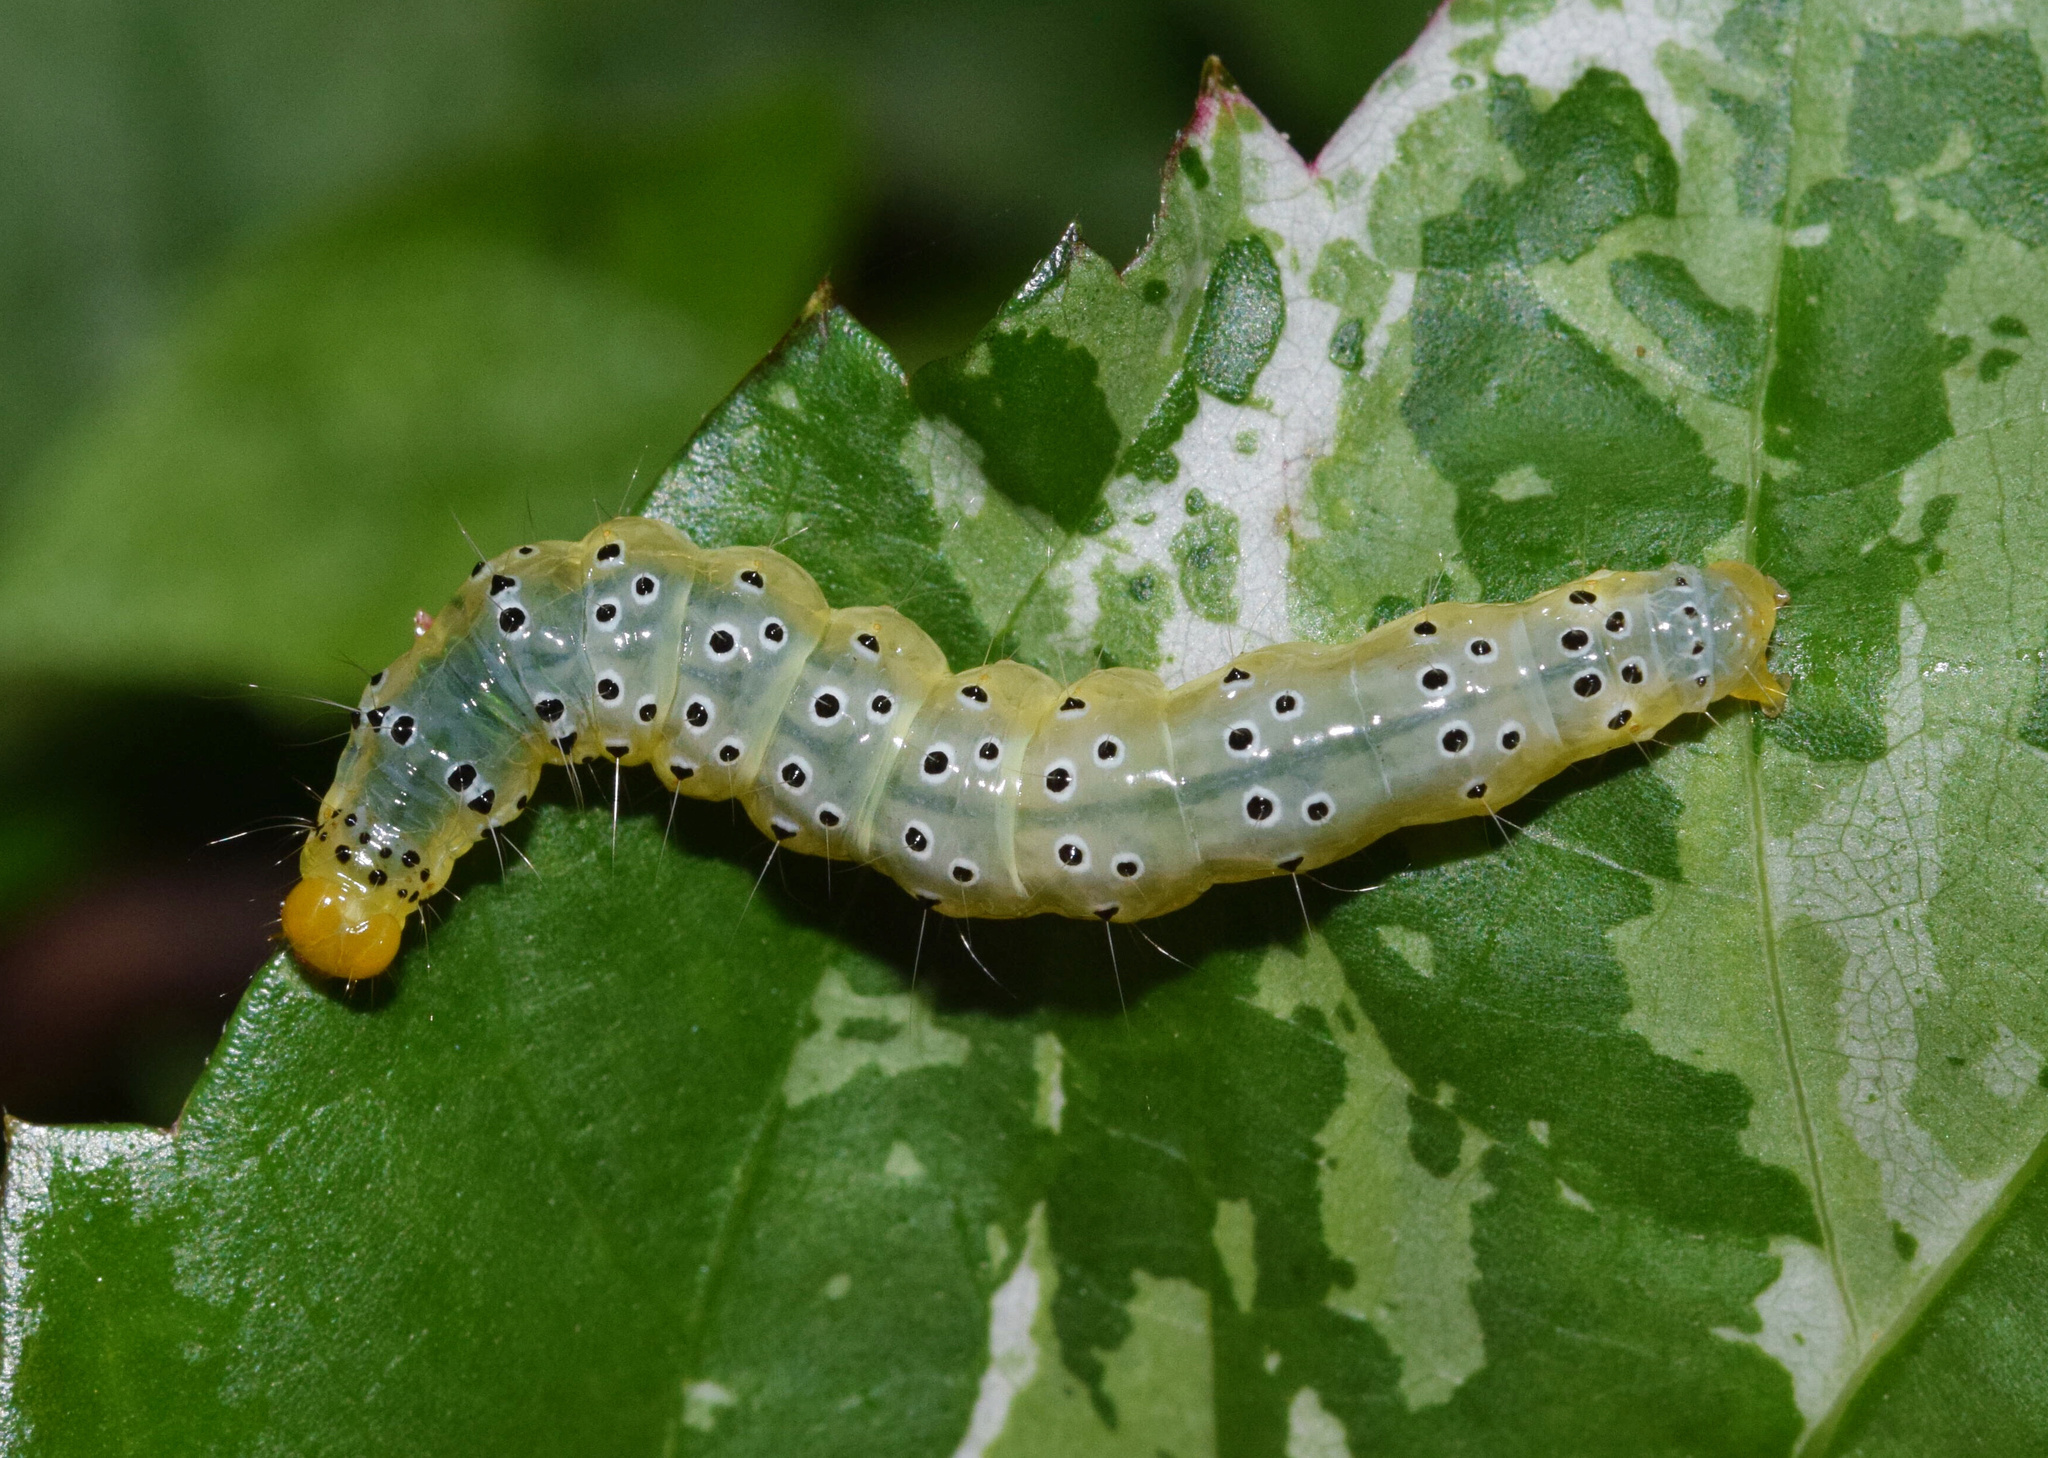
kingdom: Animalia
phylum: Arthropoda
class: Insecta
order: Lepidoptera
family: Crambidae
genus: Filodes
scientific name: Filodes costivitralis
